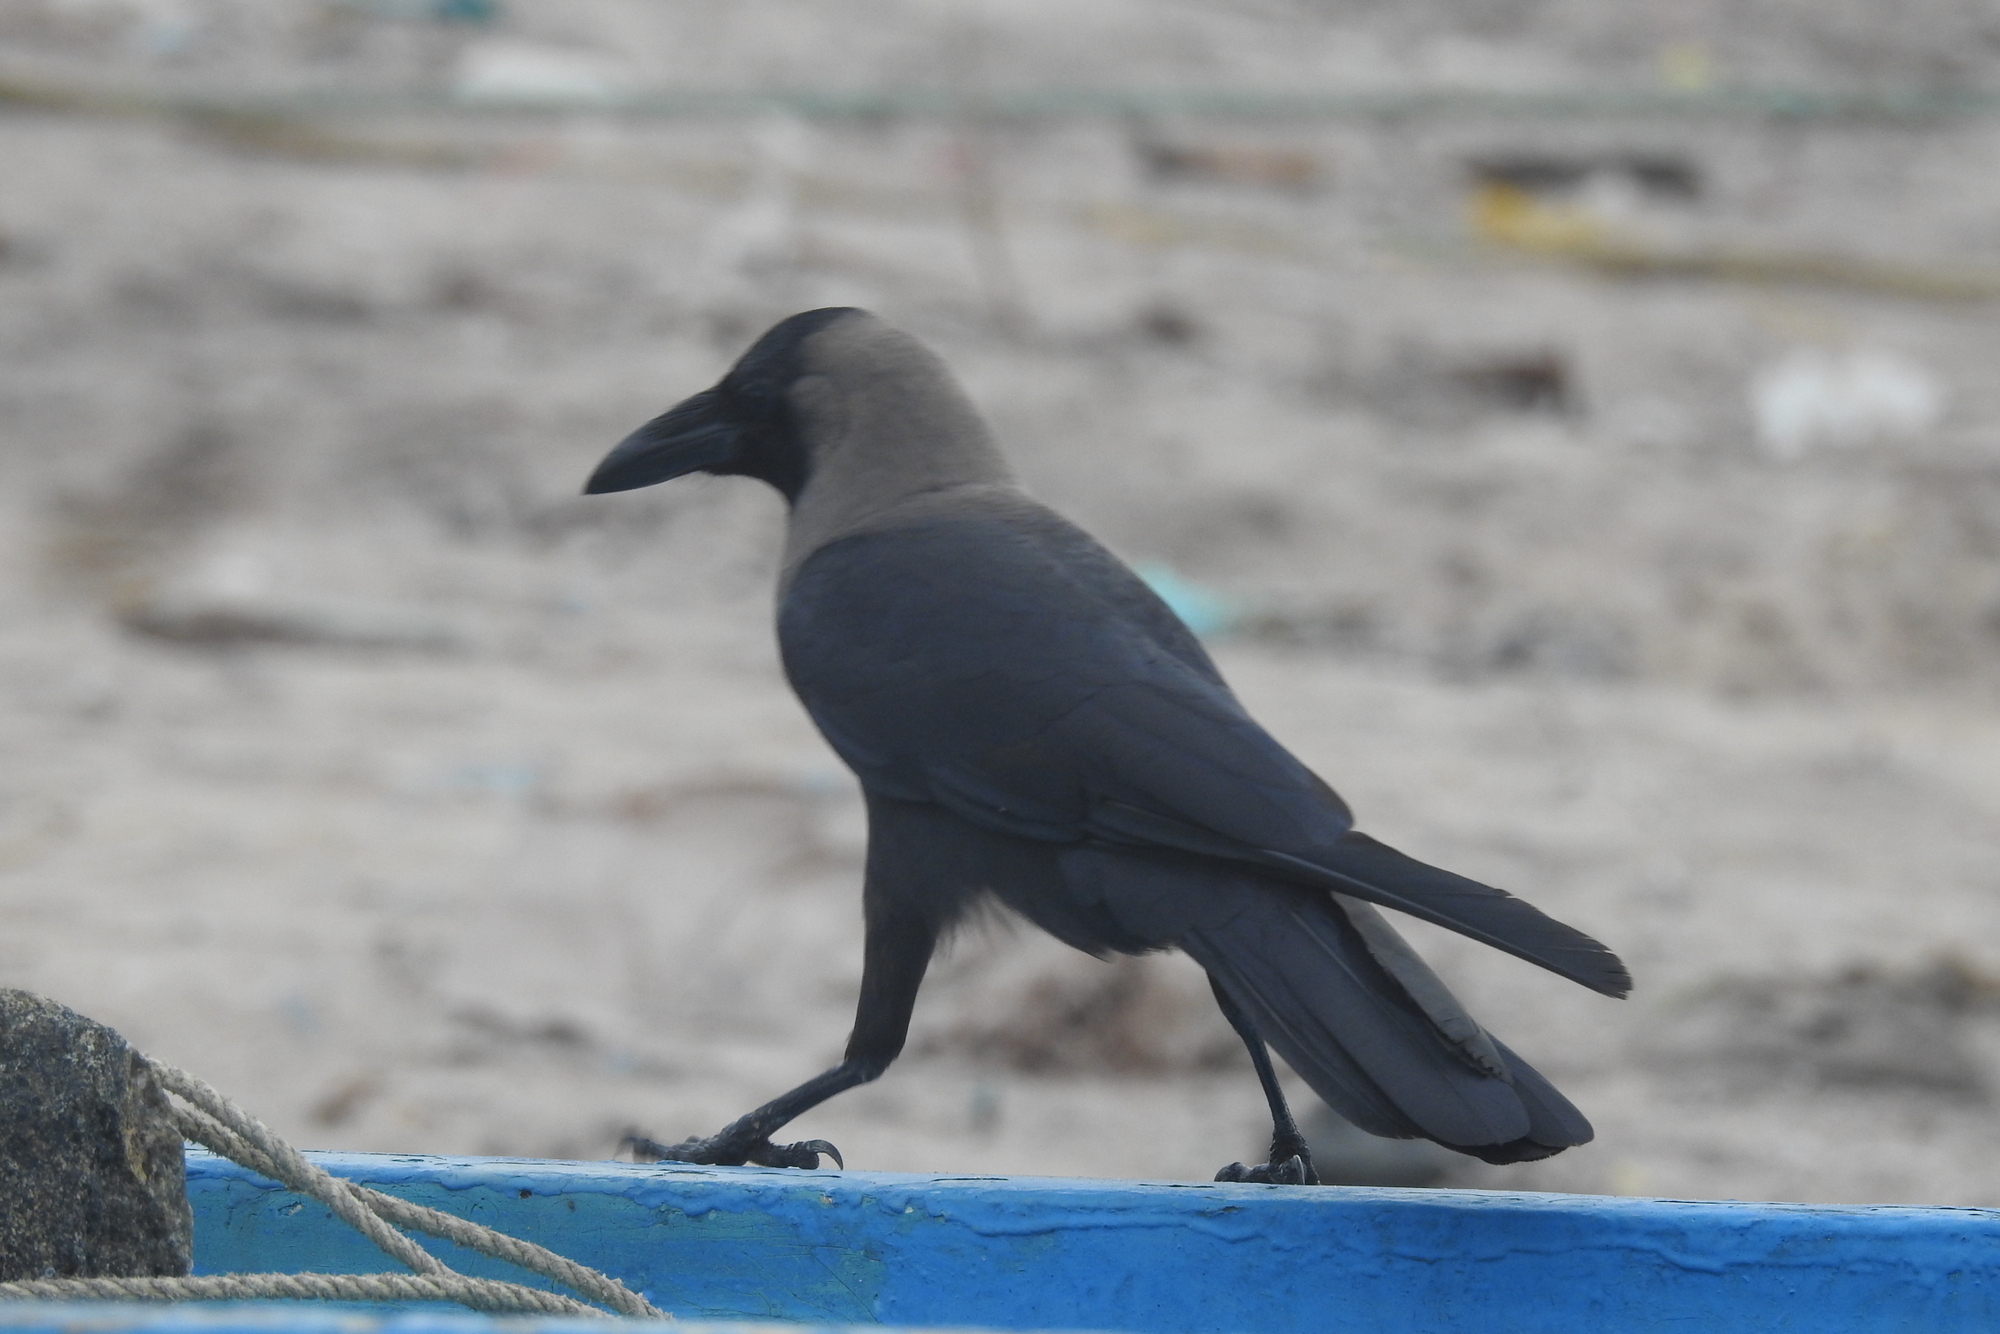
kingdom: Animalia
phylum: Chordata
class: Aves
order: Passeriformes
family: Corvidae
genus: Corvus
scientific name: Corvus splendens
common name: House crow
